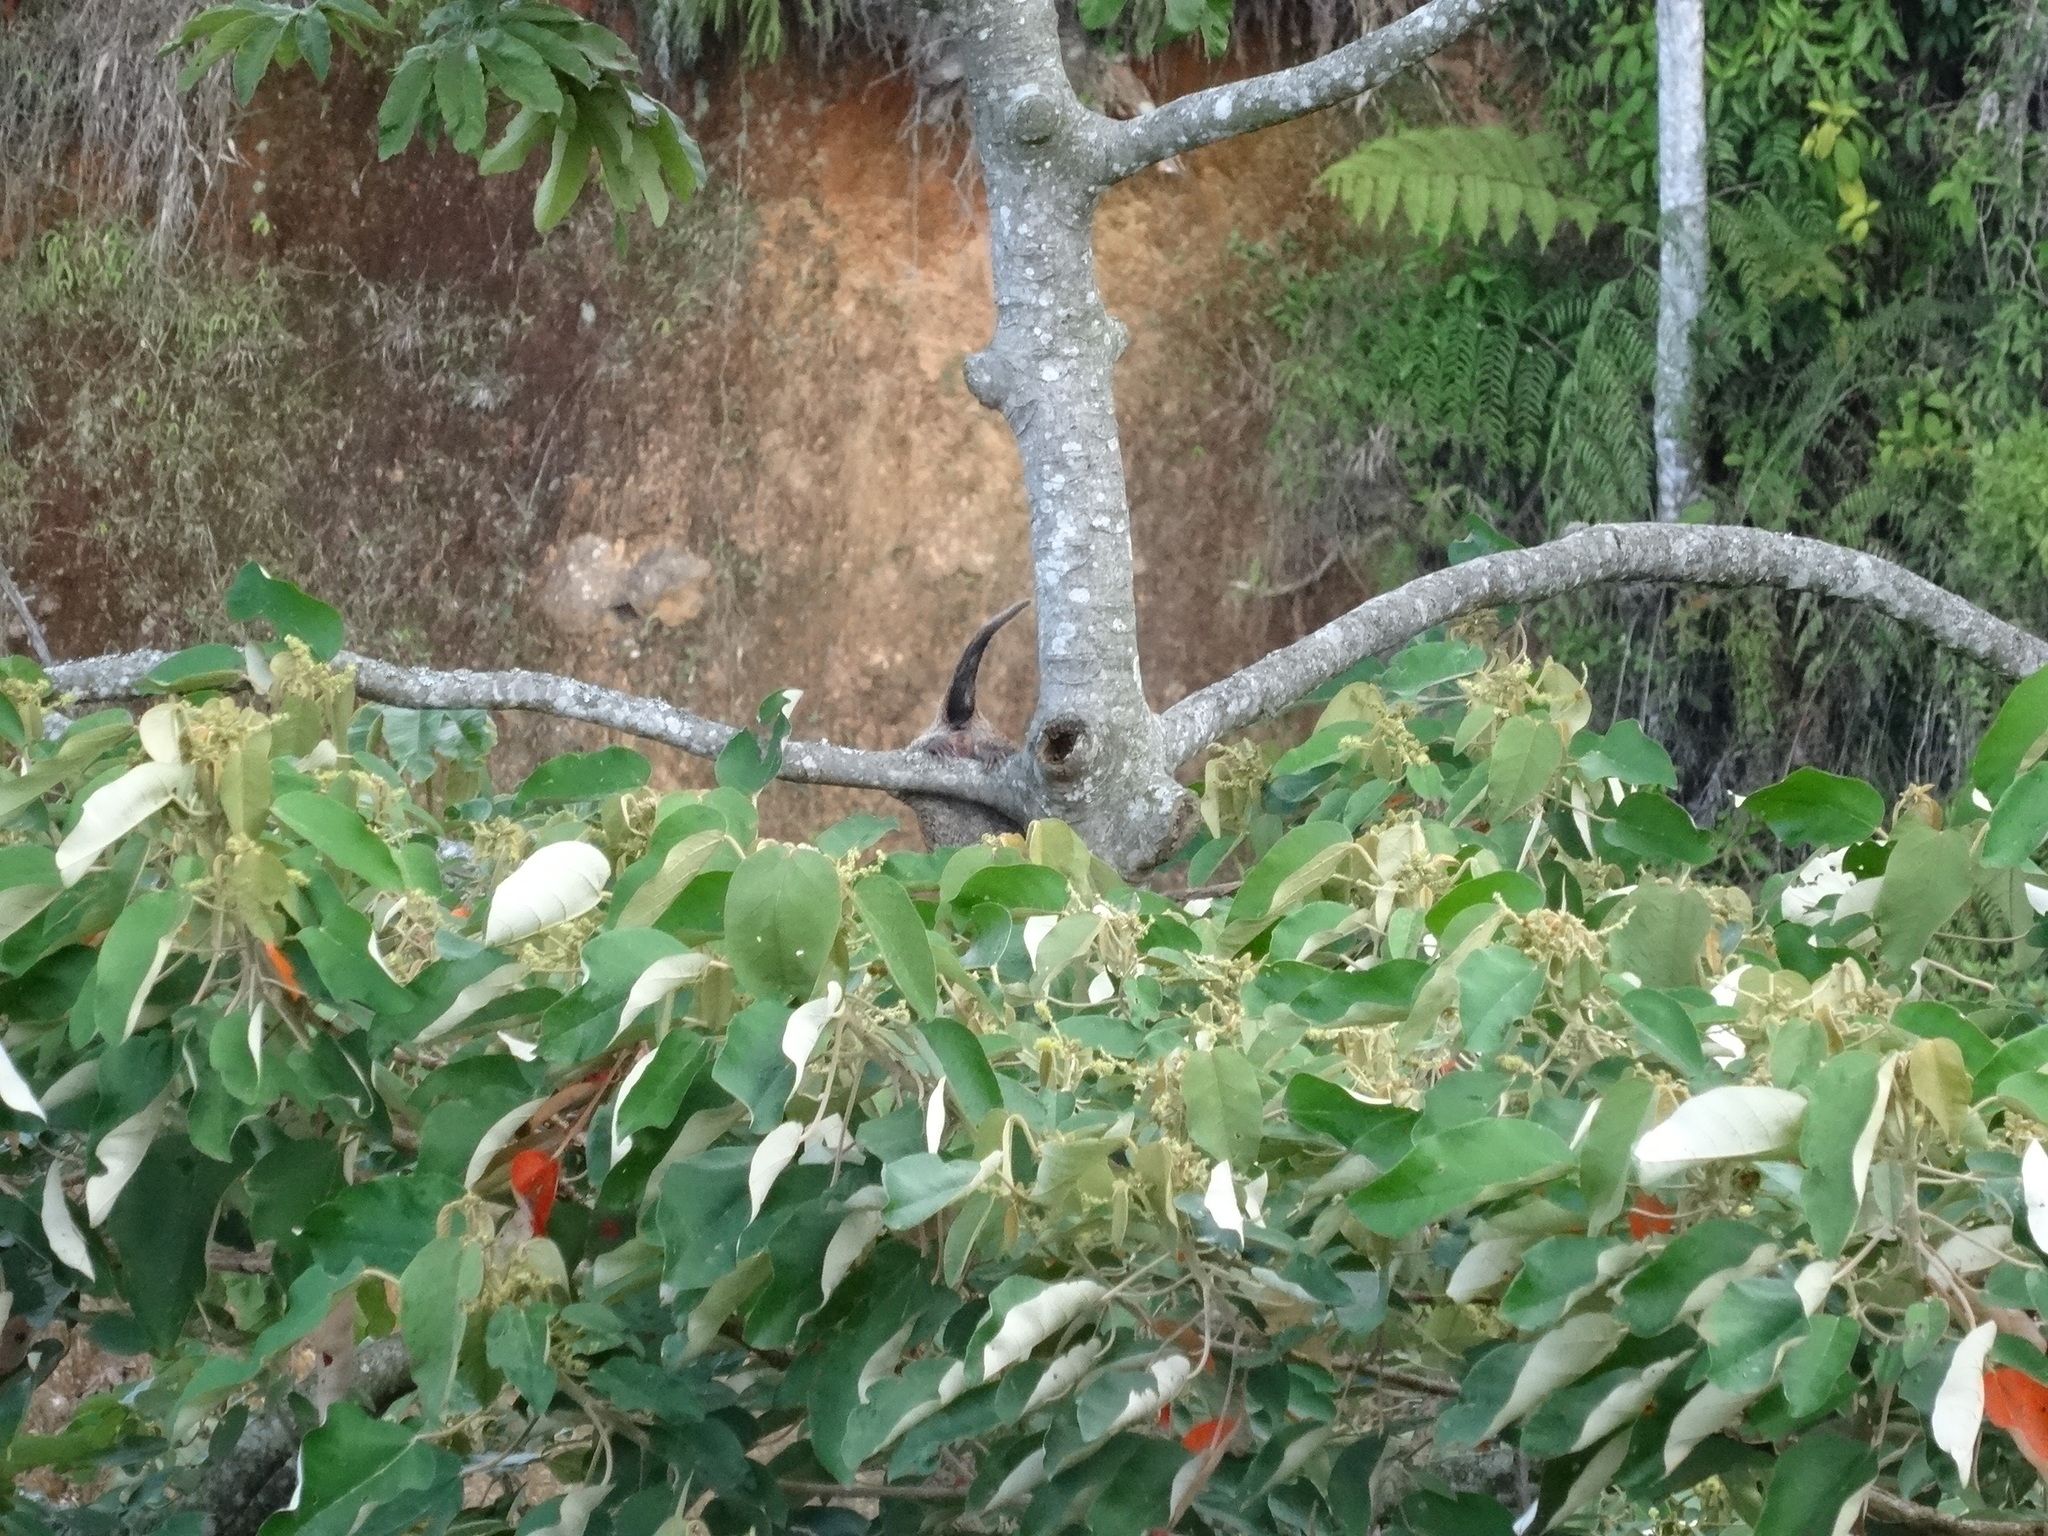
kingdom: Animalia
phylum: Chordata
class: Mammalia
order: Rodentia
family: Erethizontidae
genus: Echinoprocta
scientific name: Echinoprocta rufescens
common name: Stump-tailed porcupine
